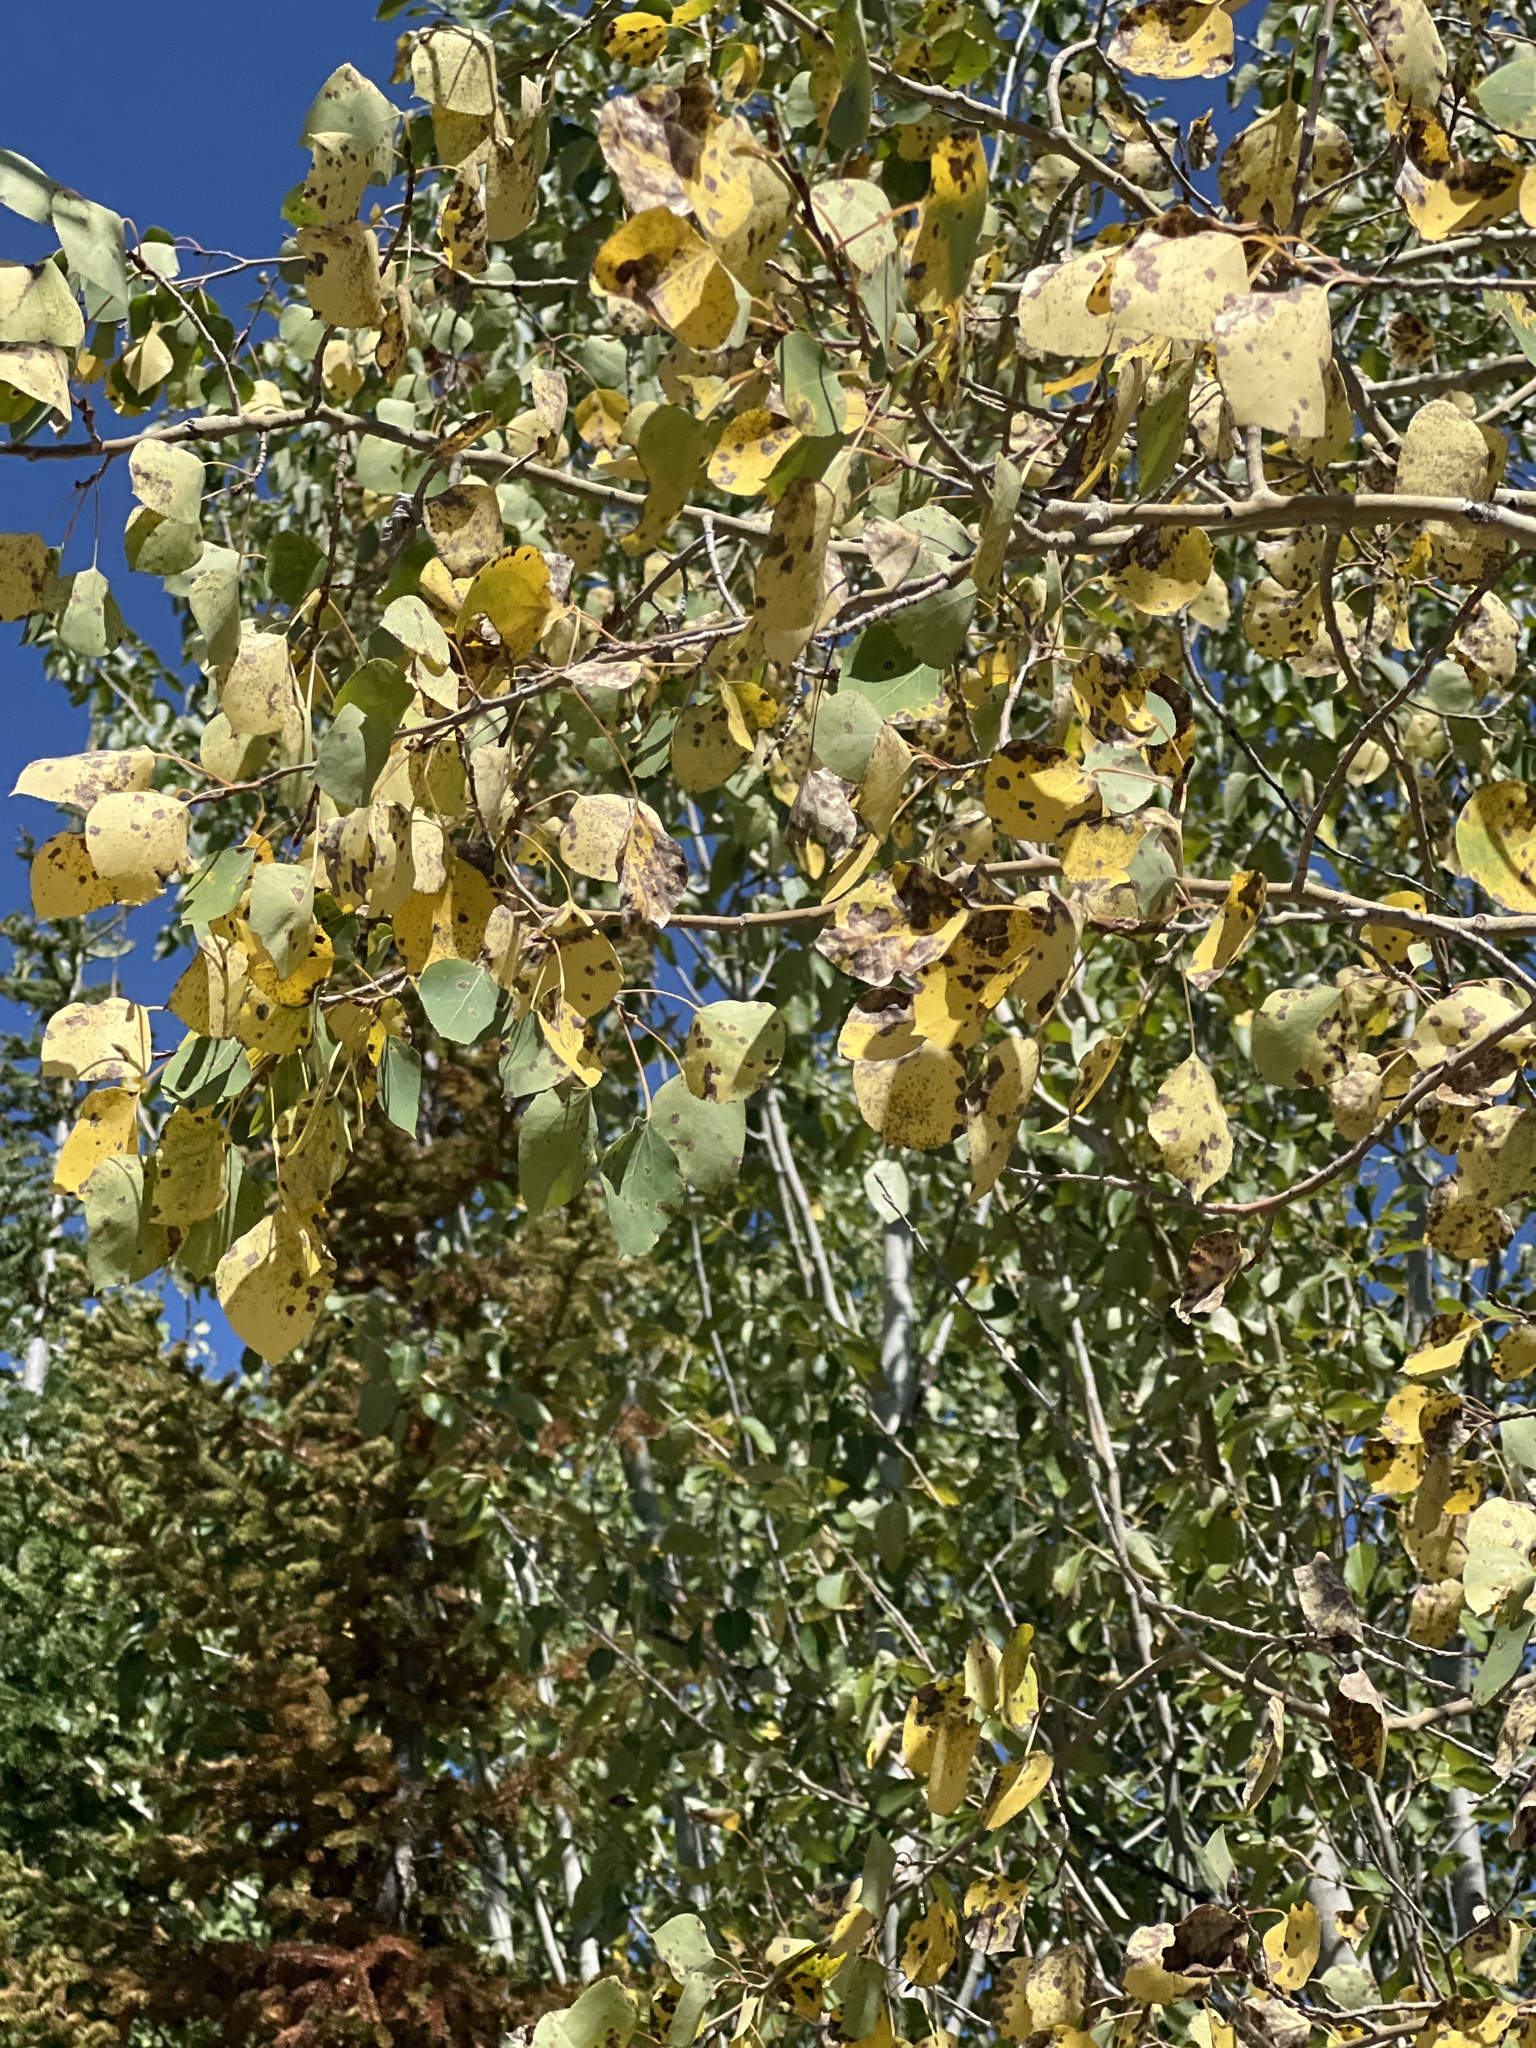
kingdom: Plantae
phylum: Tracheophyta
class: Magnoliopsida
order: Malpighiales
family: Salicaceae
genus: Populus
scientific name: Populus tremuloides
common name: Quaking aspen
